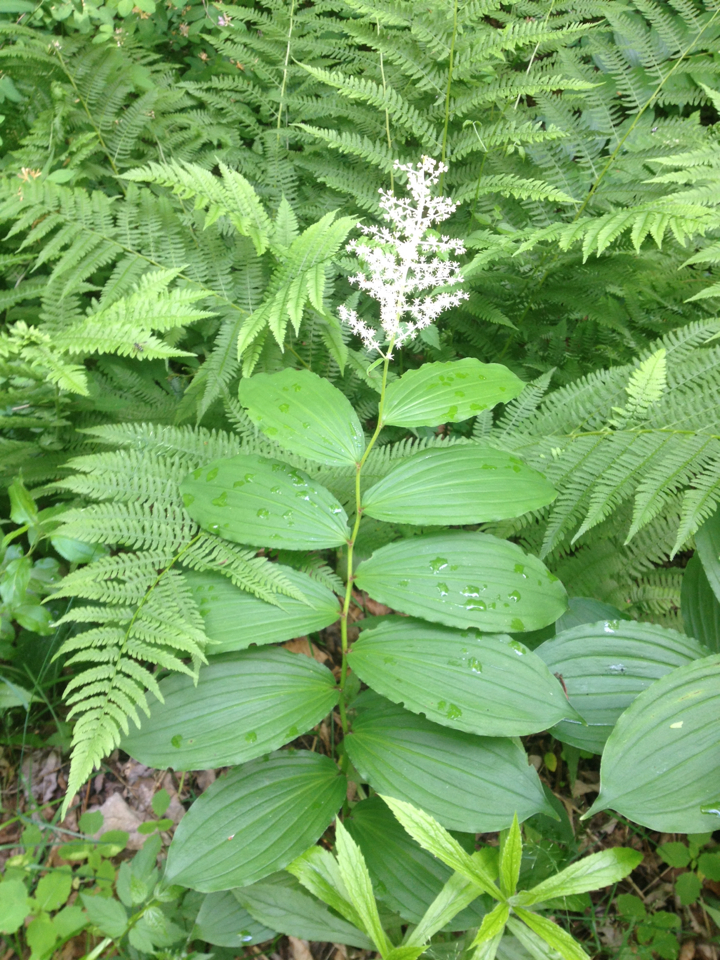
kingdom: Plantae
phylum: Tracheophyta
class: Liliopsida
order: Asparagales
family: Asparagaceae
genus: Maianthemum
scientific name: Maianthemum racemosum
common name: False spikenard
